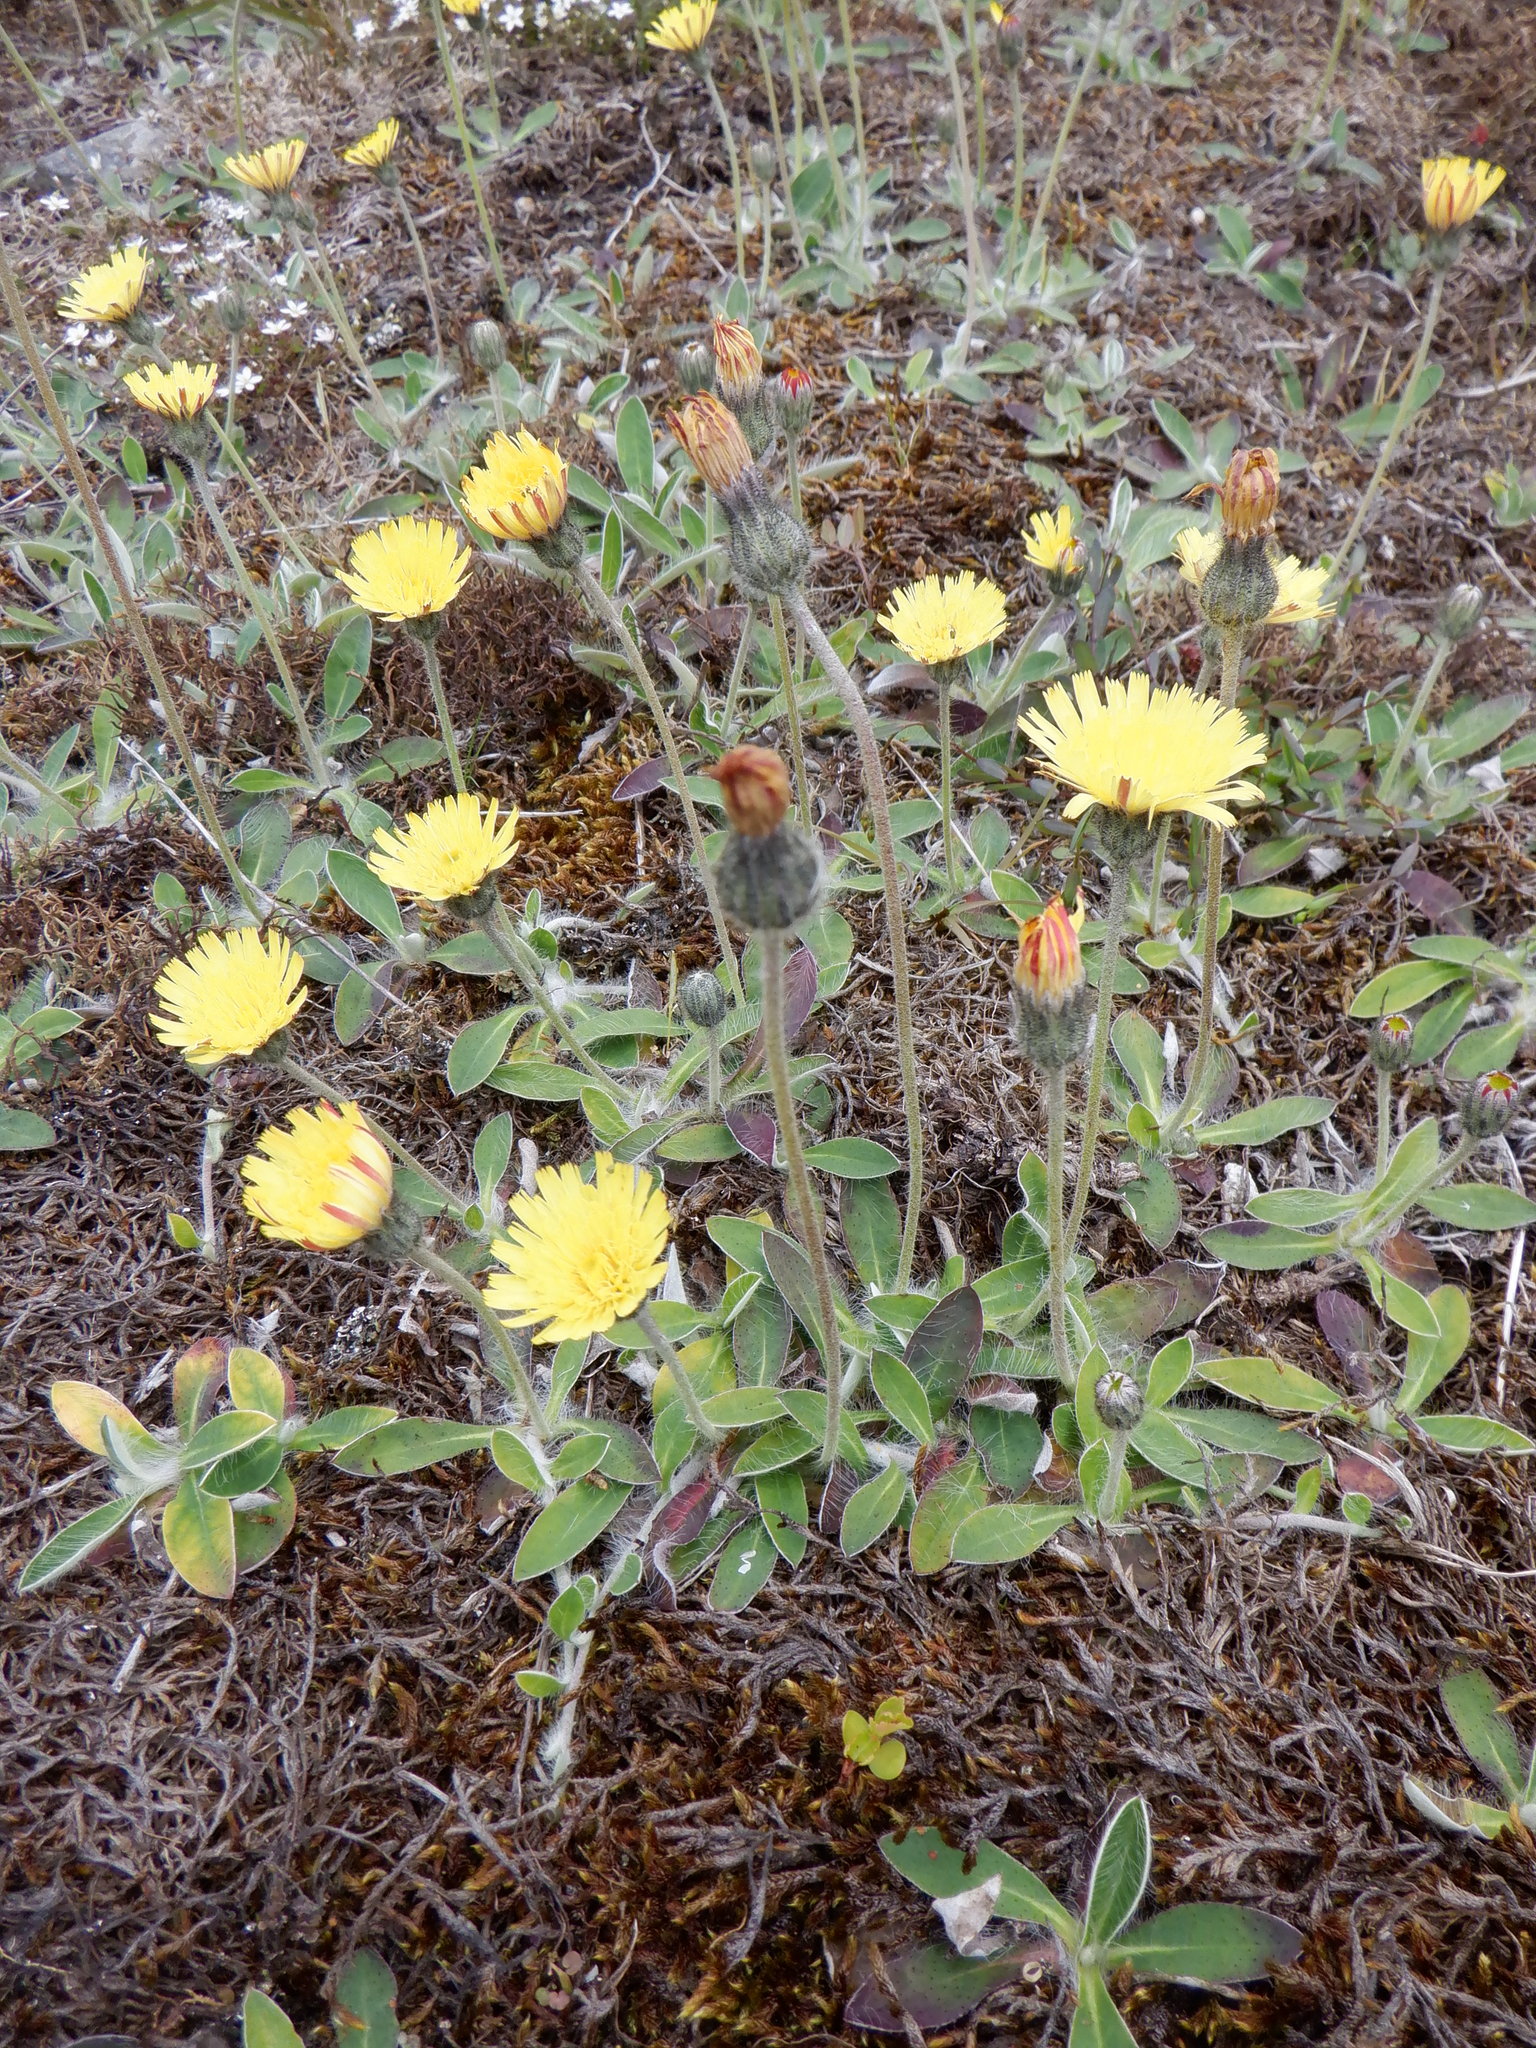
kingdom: Plantae
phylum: Tracheophyta
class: Magnoliopsida
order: Asterales
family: Asteraceae
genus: Pilosella
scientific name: Pilosella officinarum
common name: Mouse-ear hawkweed
